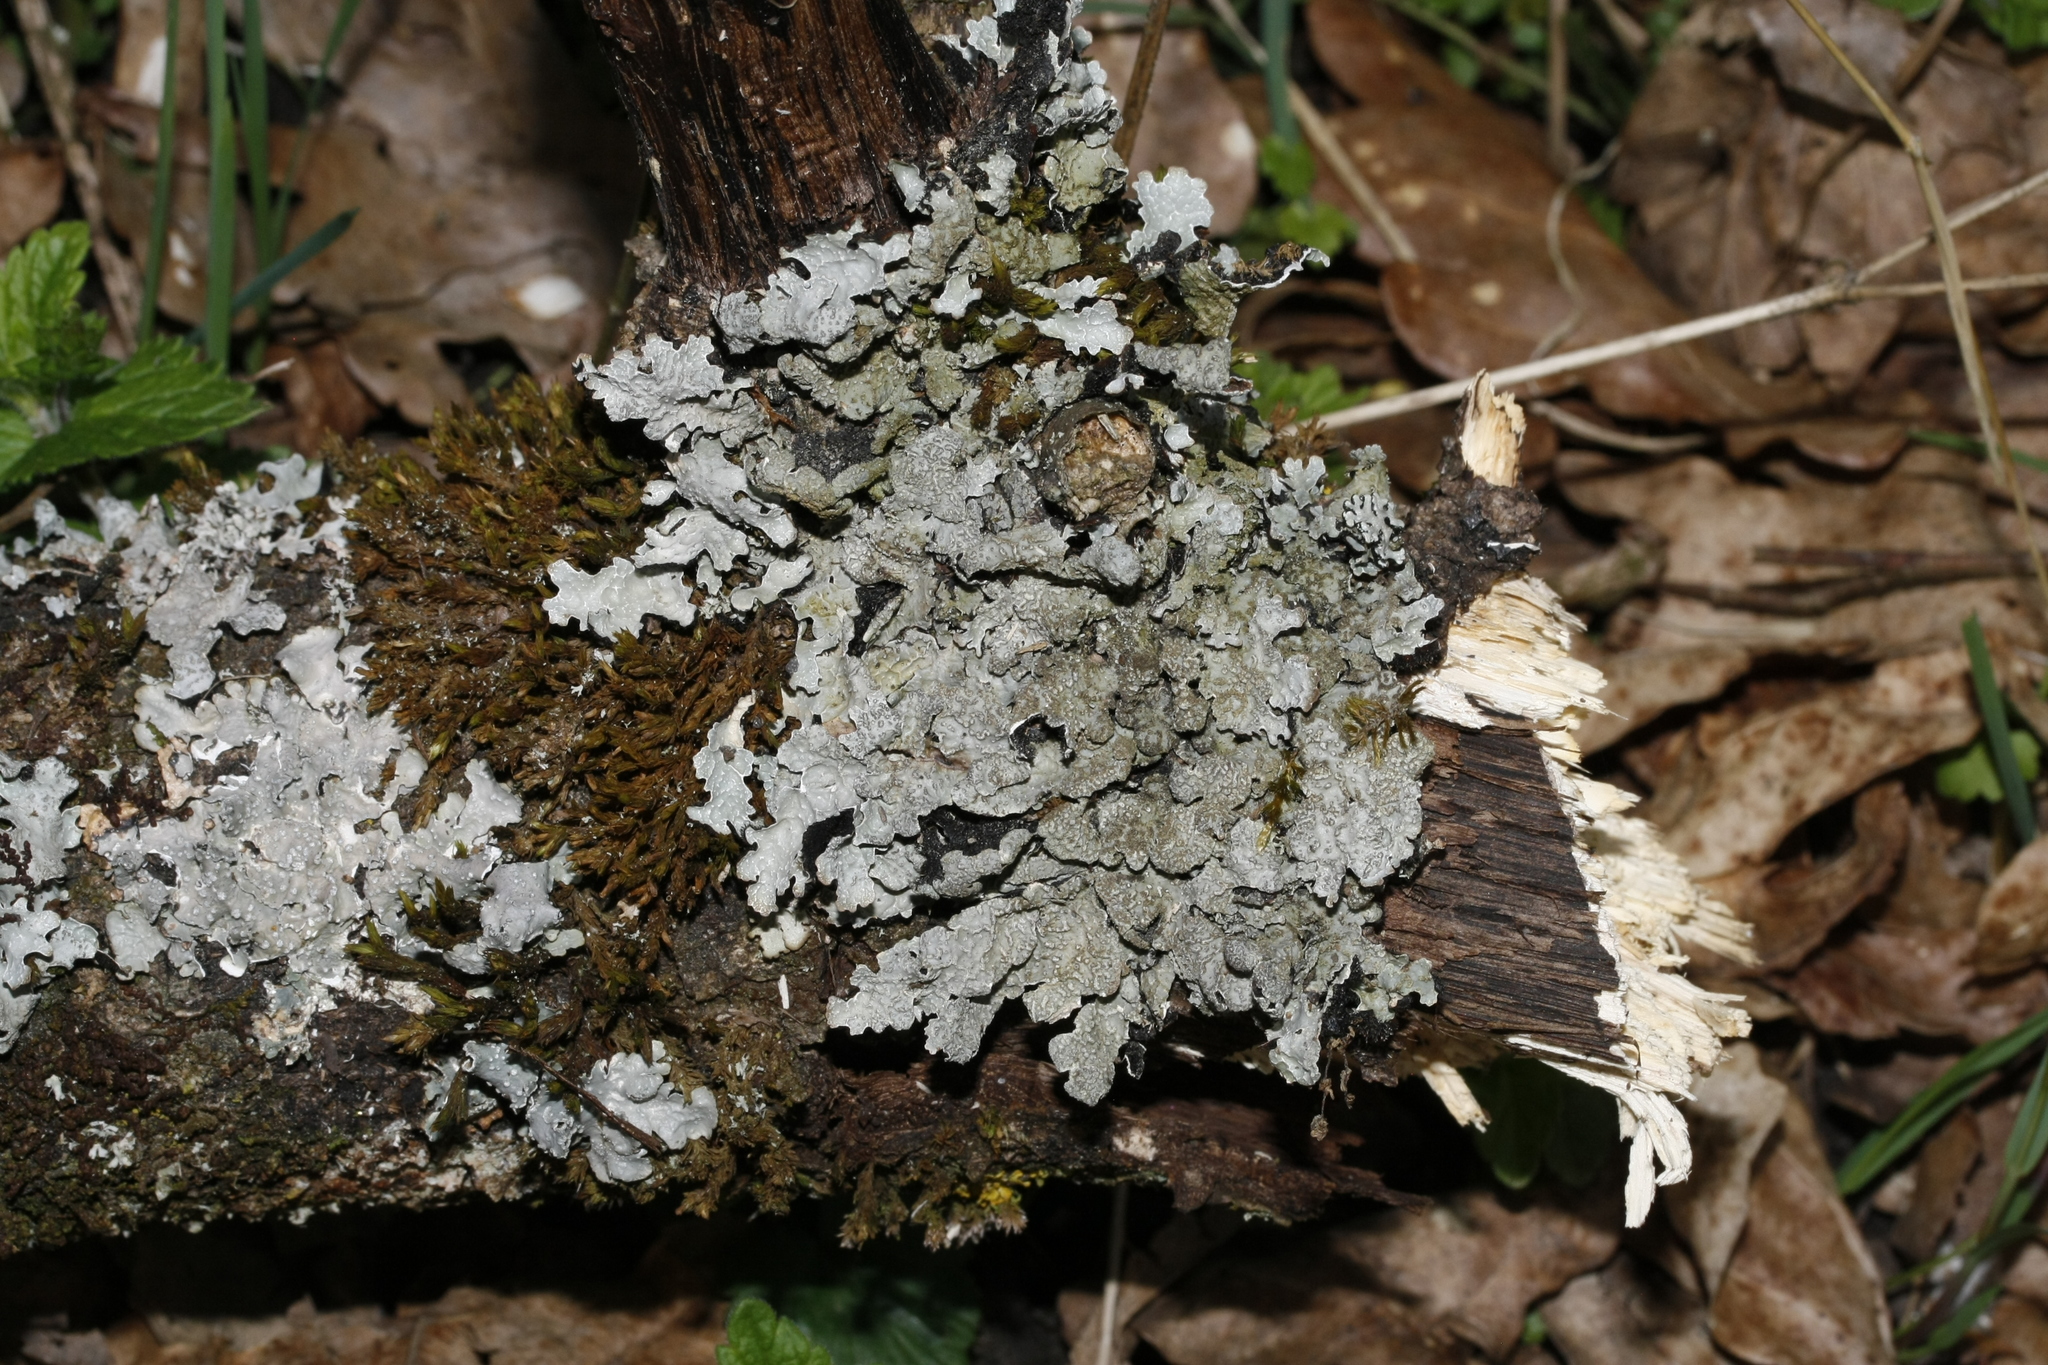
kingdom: Fungi
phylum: Ascomycota
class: Lecanoromycetes
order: Lecanorales
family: Parmeliaceae
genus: Parmelia
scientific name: Parmelia sulcata
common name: Netted shield lichen
